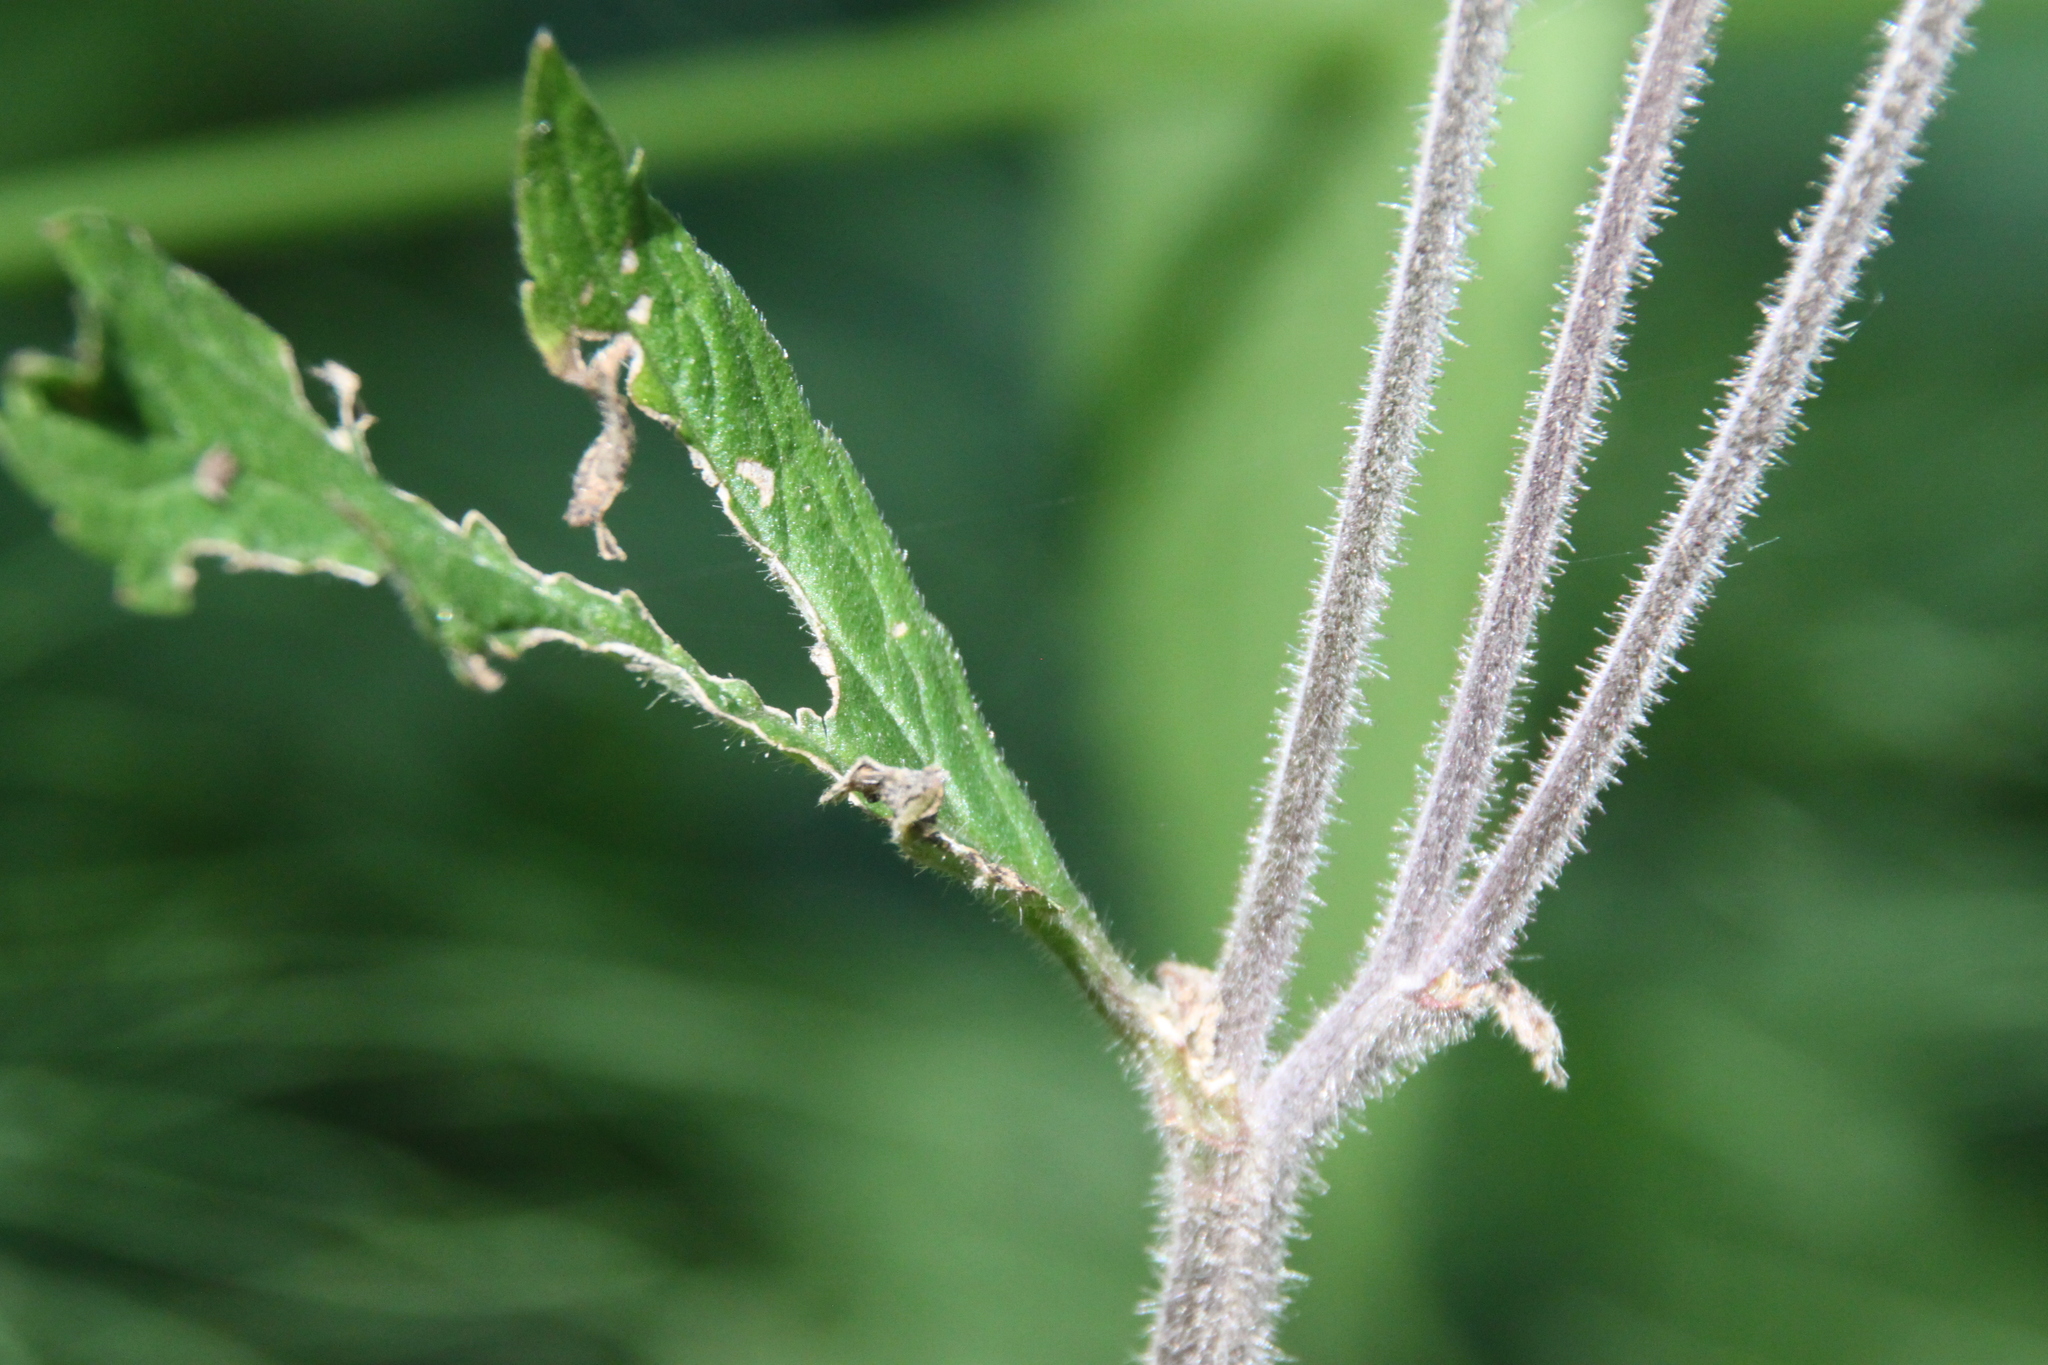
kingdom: Plantae
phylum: Tracheophyta
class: Magnoliopsida
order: Rosales
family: Rosaceae
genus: Geum
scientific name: Geum rivale
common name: Water avens
